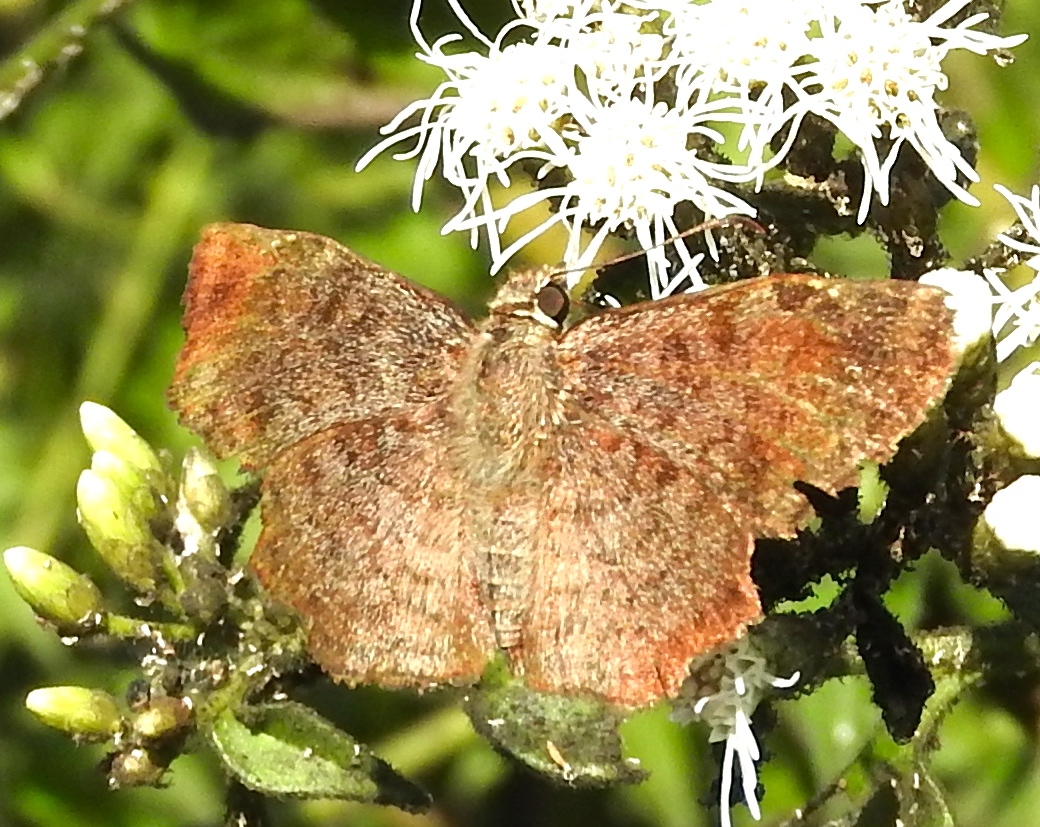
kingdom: Animalia
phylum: Arthropoda
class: Insecta
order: Lepidoptera
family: Hesperiidae
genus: Antigonus
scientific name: Antigonus erosus
